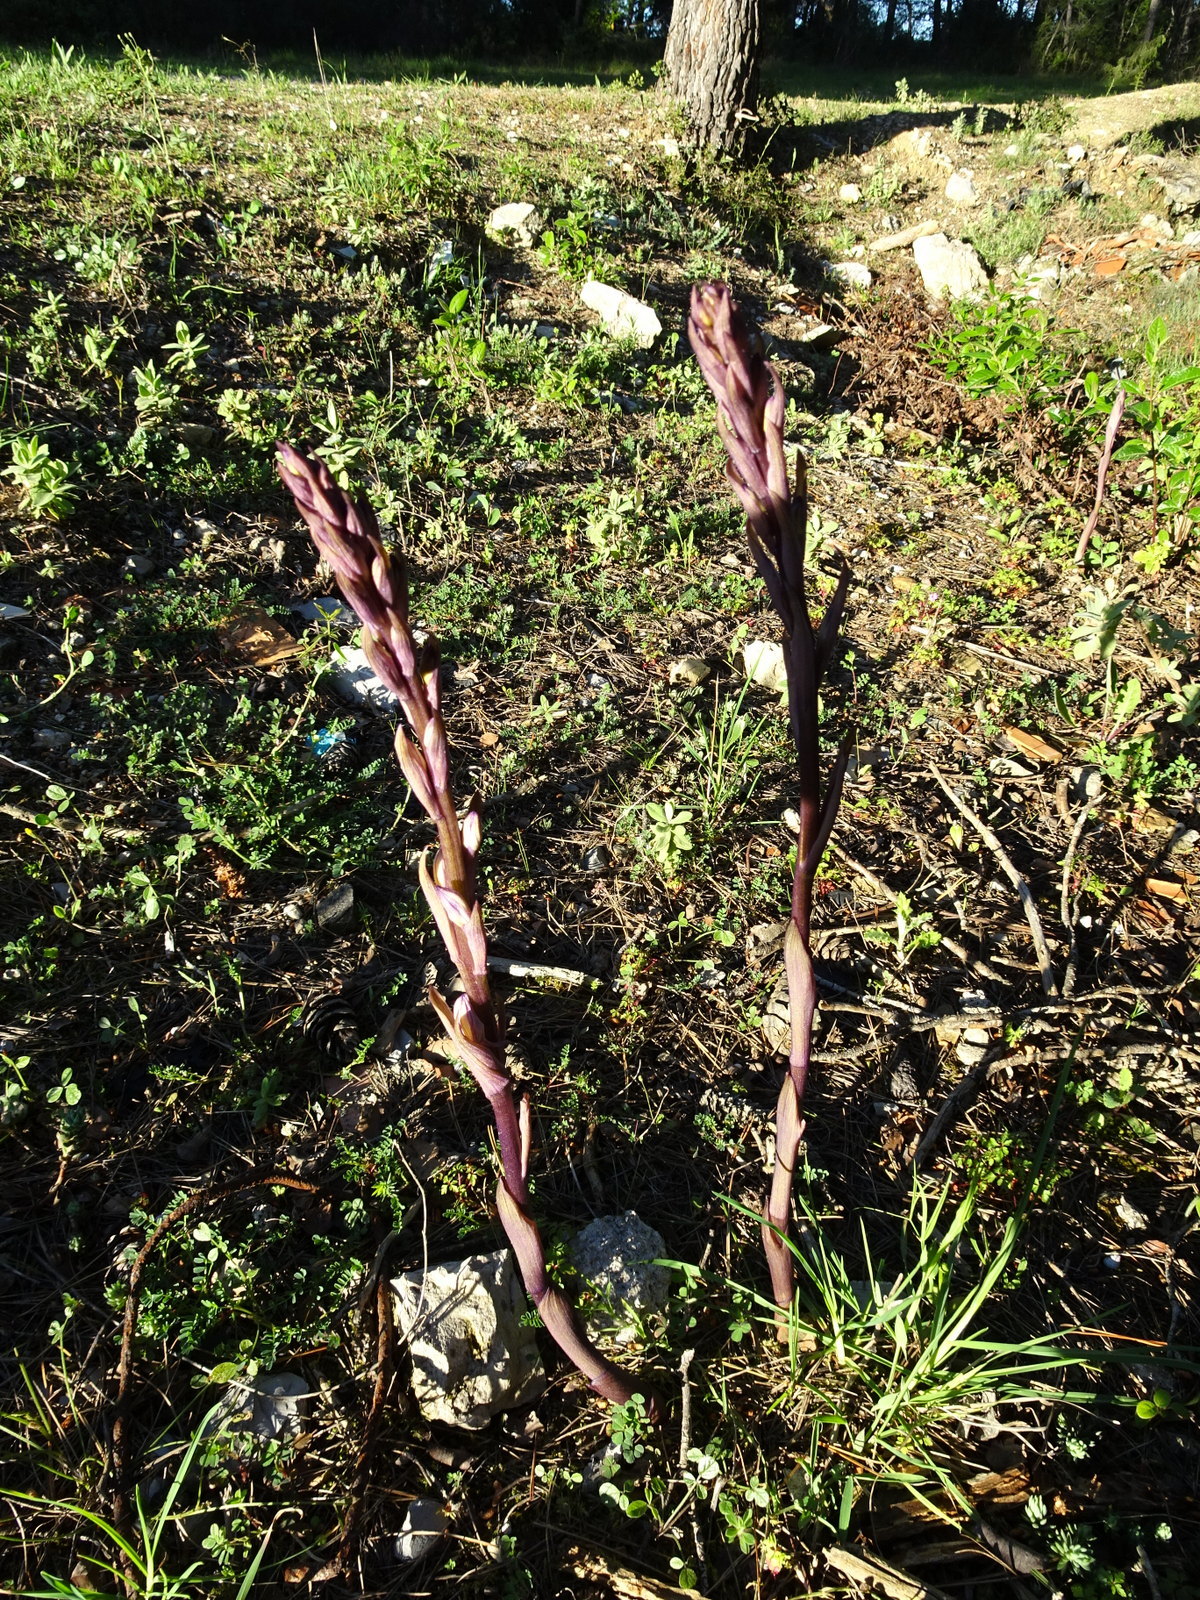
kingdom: Plantae
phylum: Tracheophyta
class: Liliopsida
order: Asparagales
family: Orchidaceae
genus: Limodorum
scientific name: Limodorum abortivum
